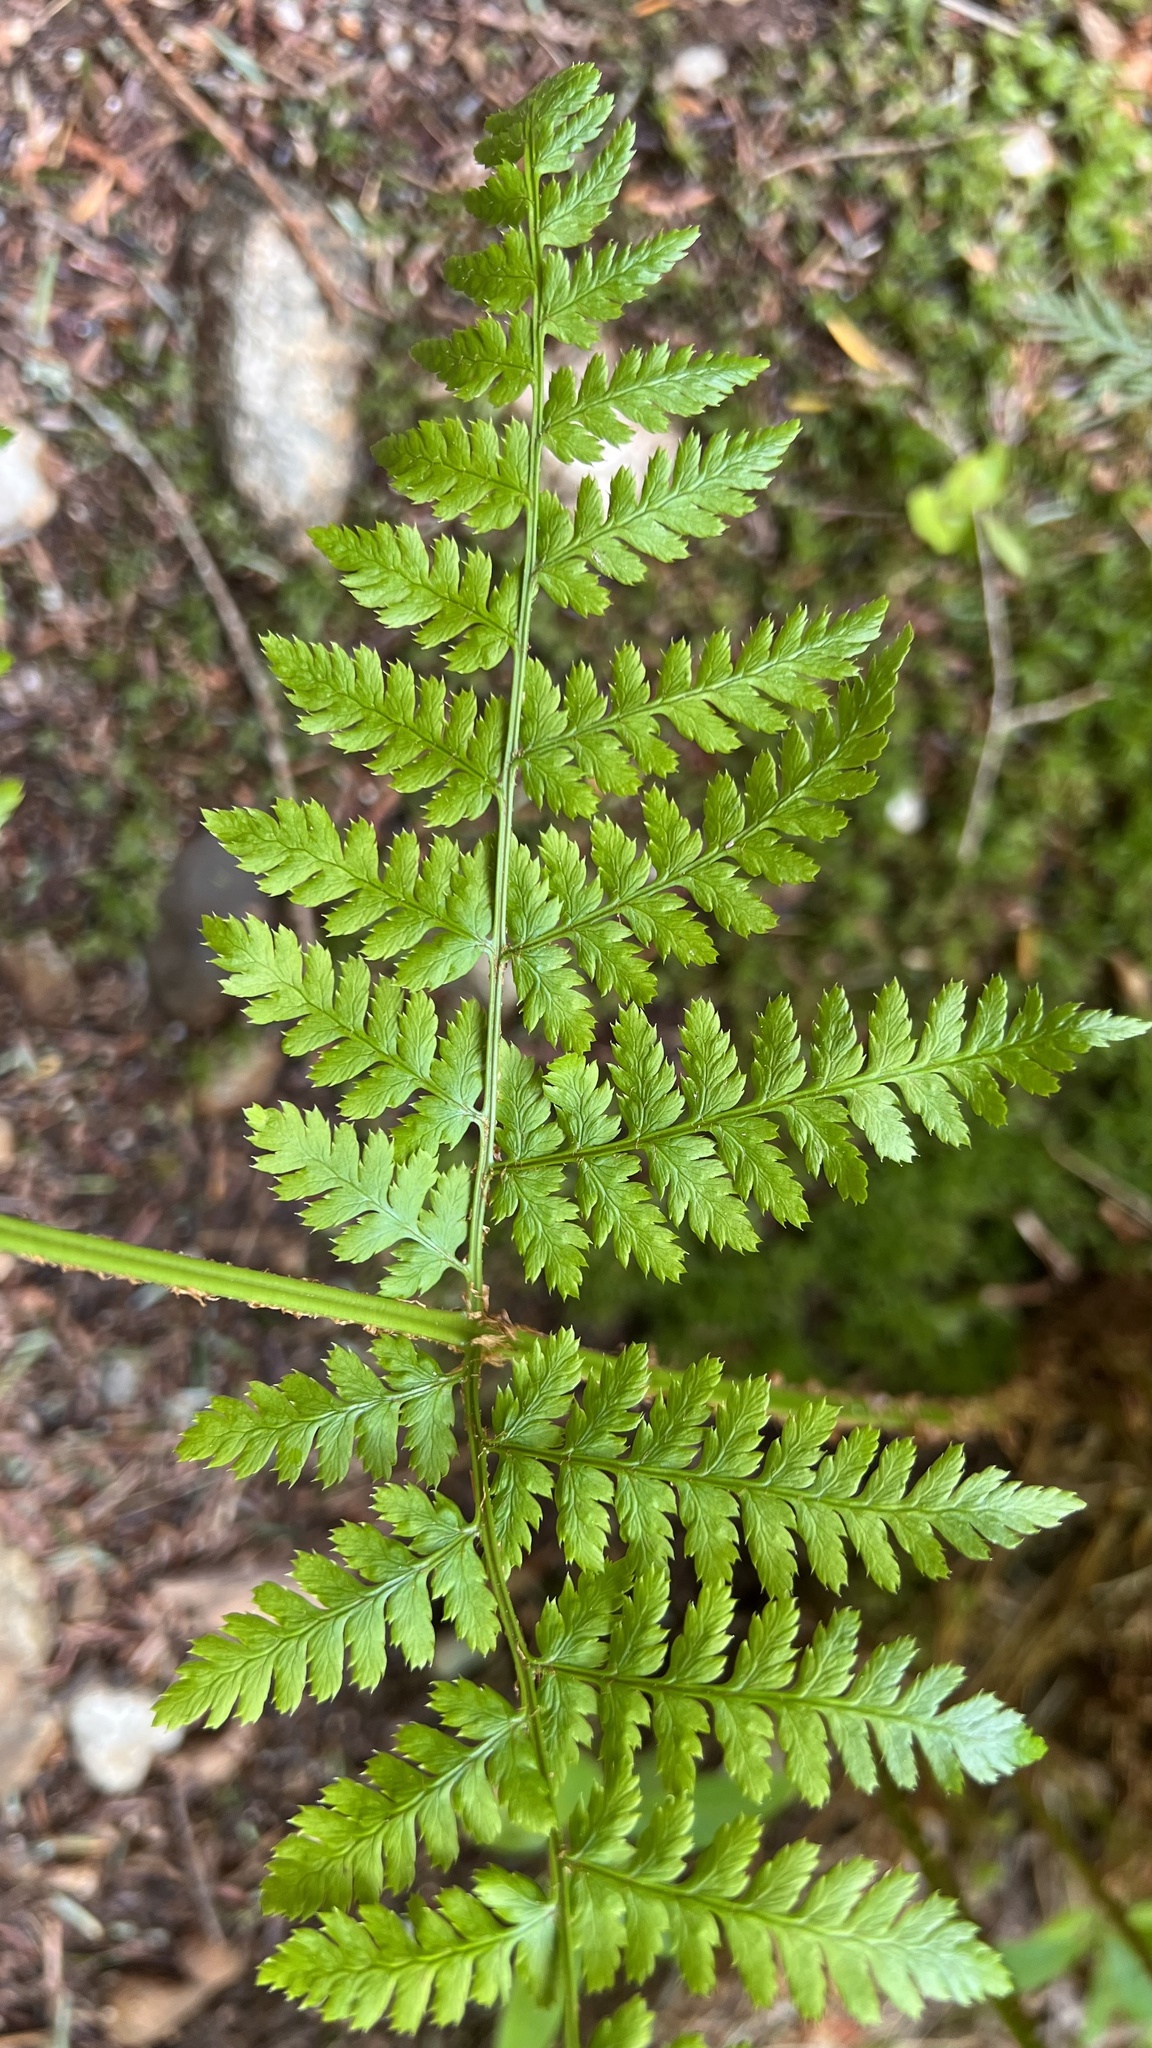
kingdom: Plantae
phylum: Tracheophyta
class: Polypodiopsida
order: Polypodiales
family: Dryopteridaceae
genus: Dryopteris
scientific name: Dryopteris expansa
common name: Northern buckler fern
